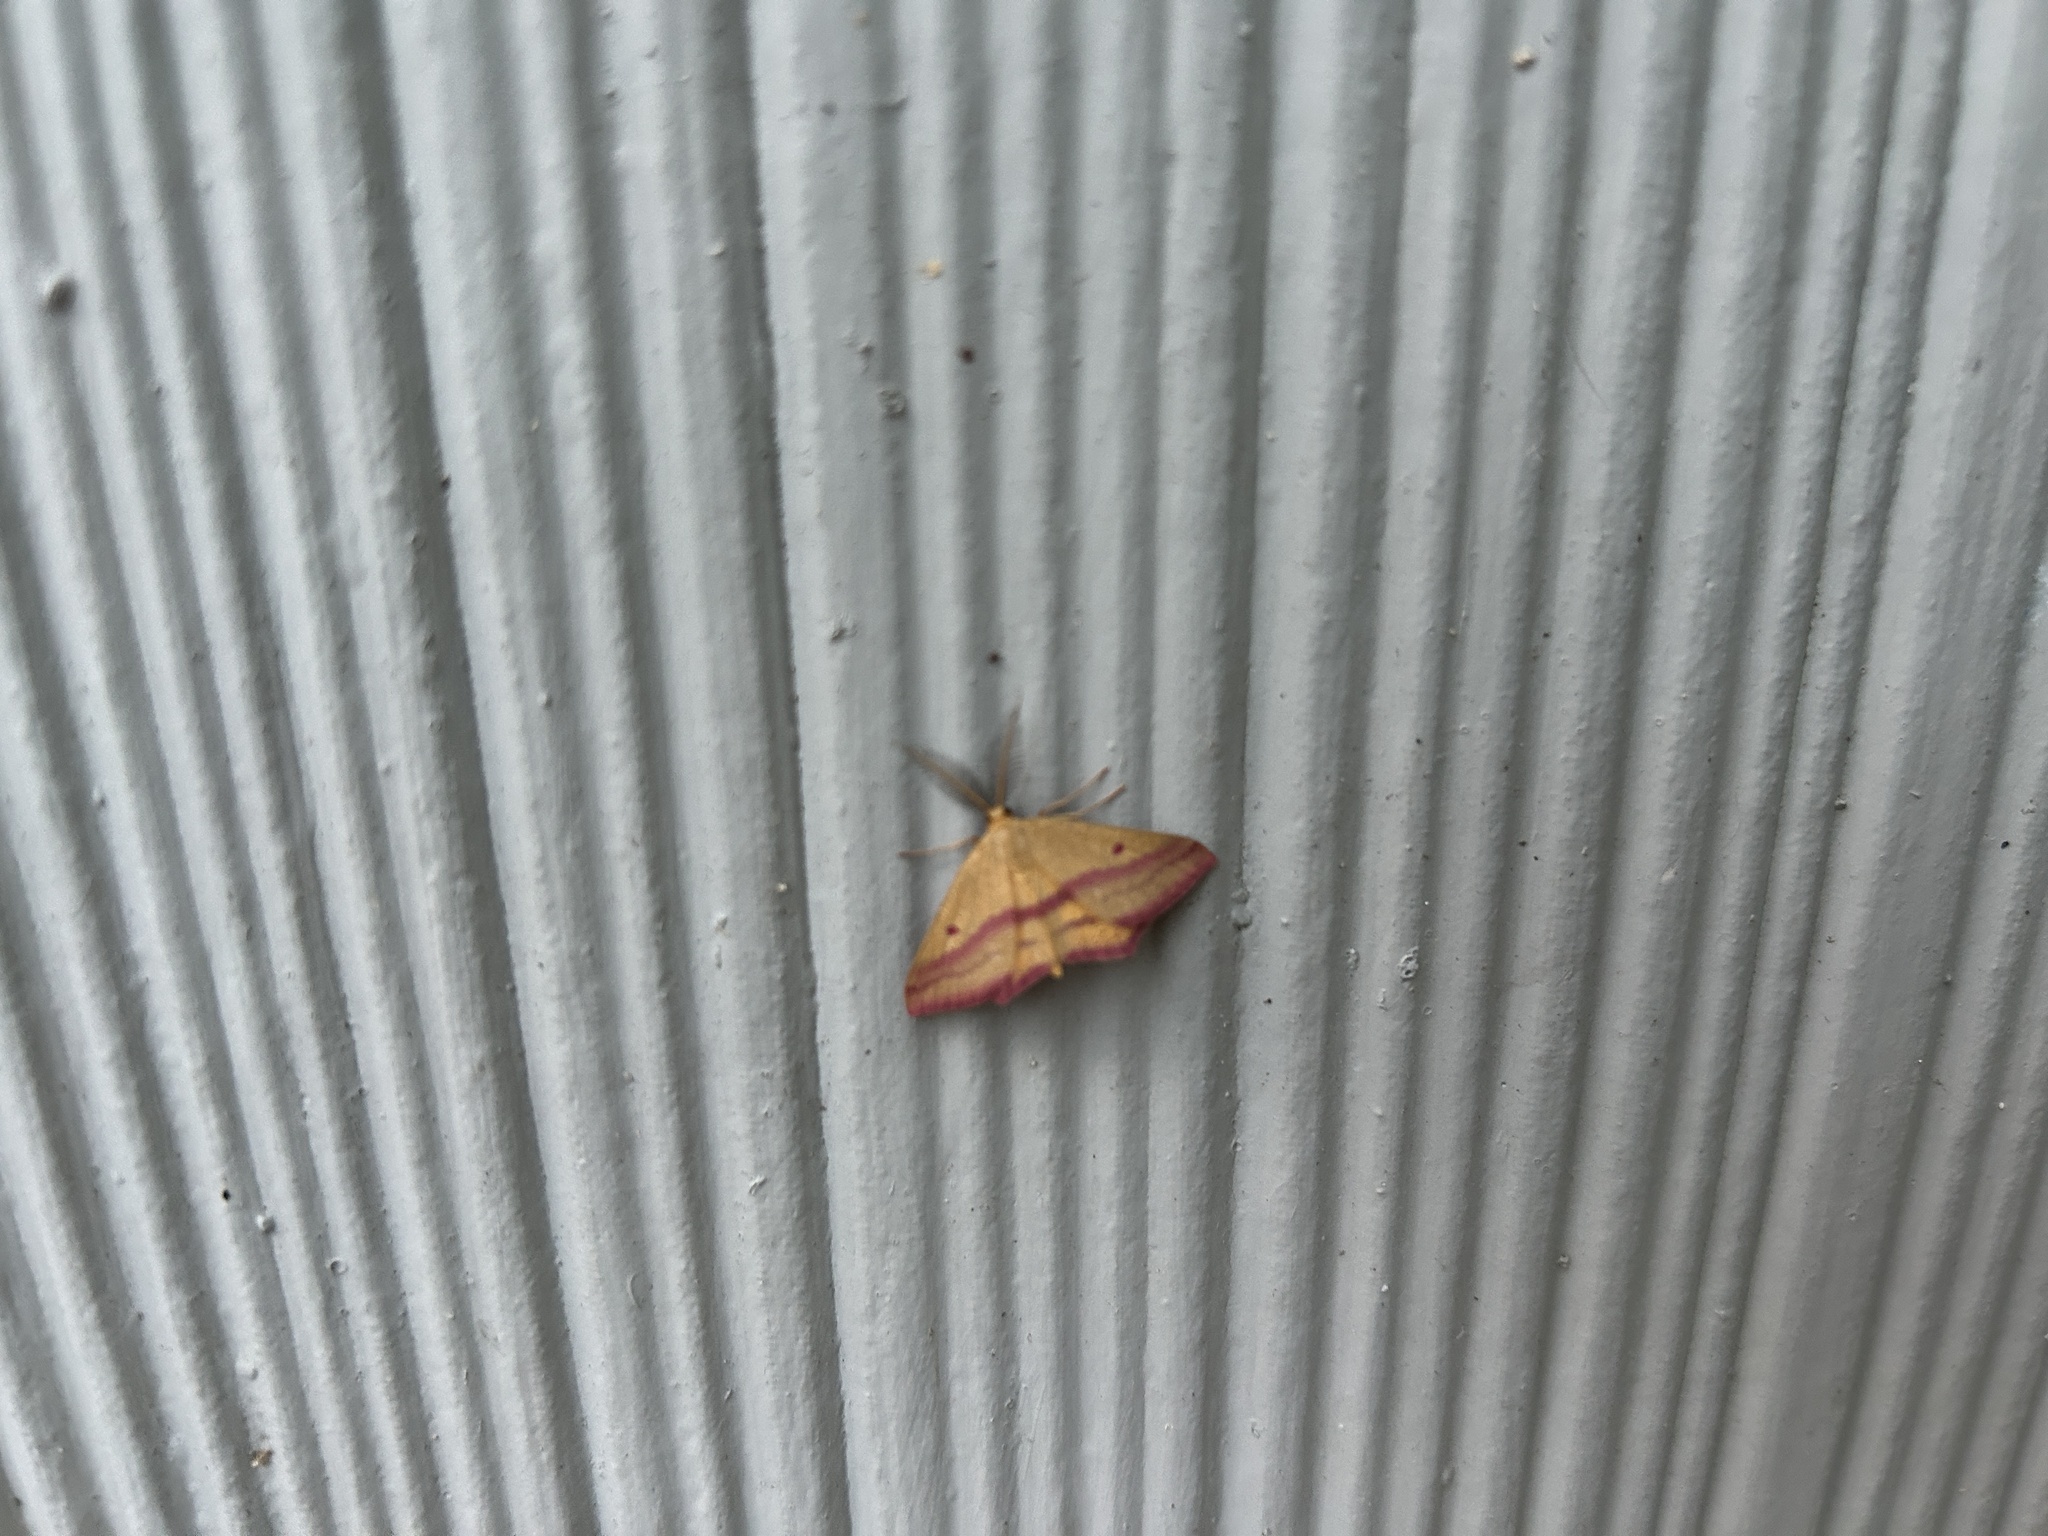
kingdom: Animalia
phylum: Arthropoda
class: Insecta
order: Lepidoptera
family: Geometridae
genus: Haematopis
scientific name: Haematopis grataria
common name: Chickweed geometer
